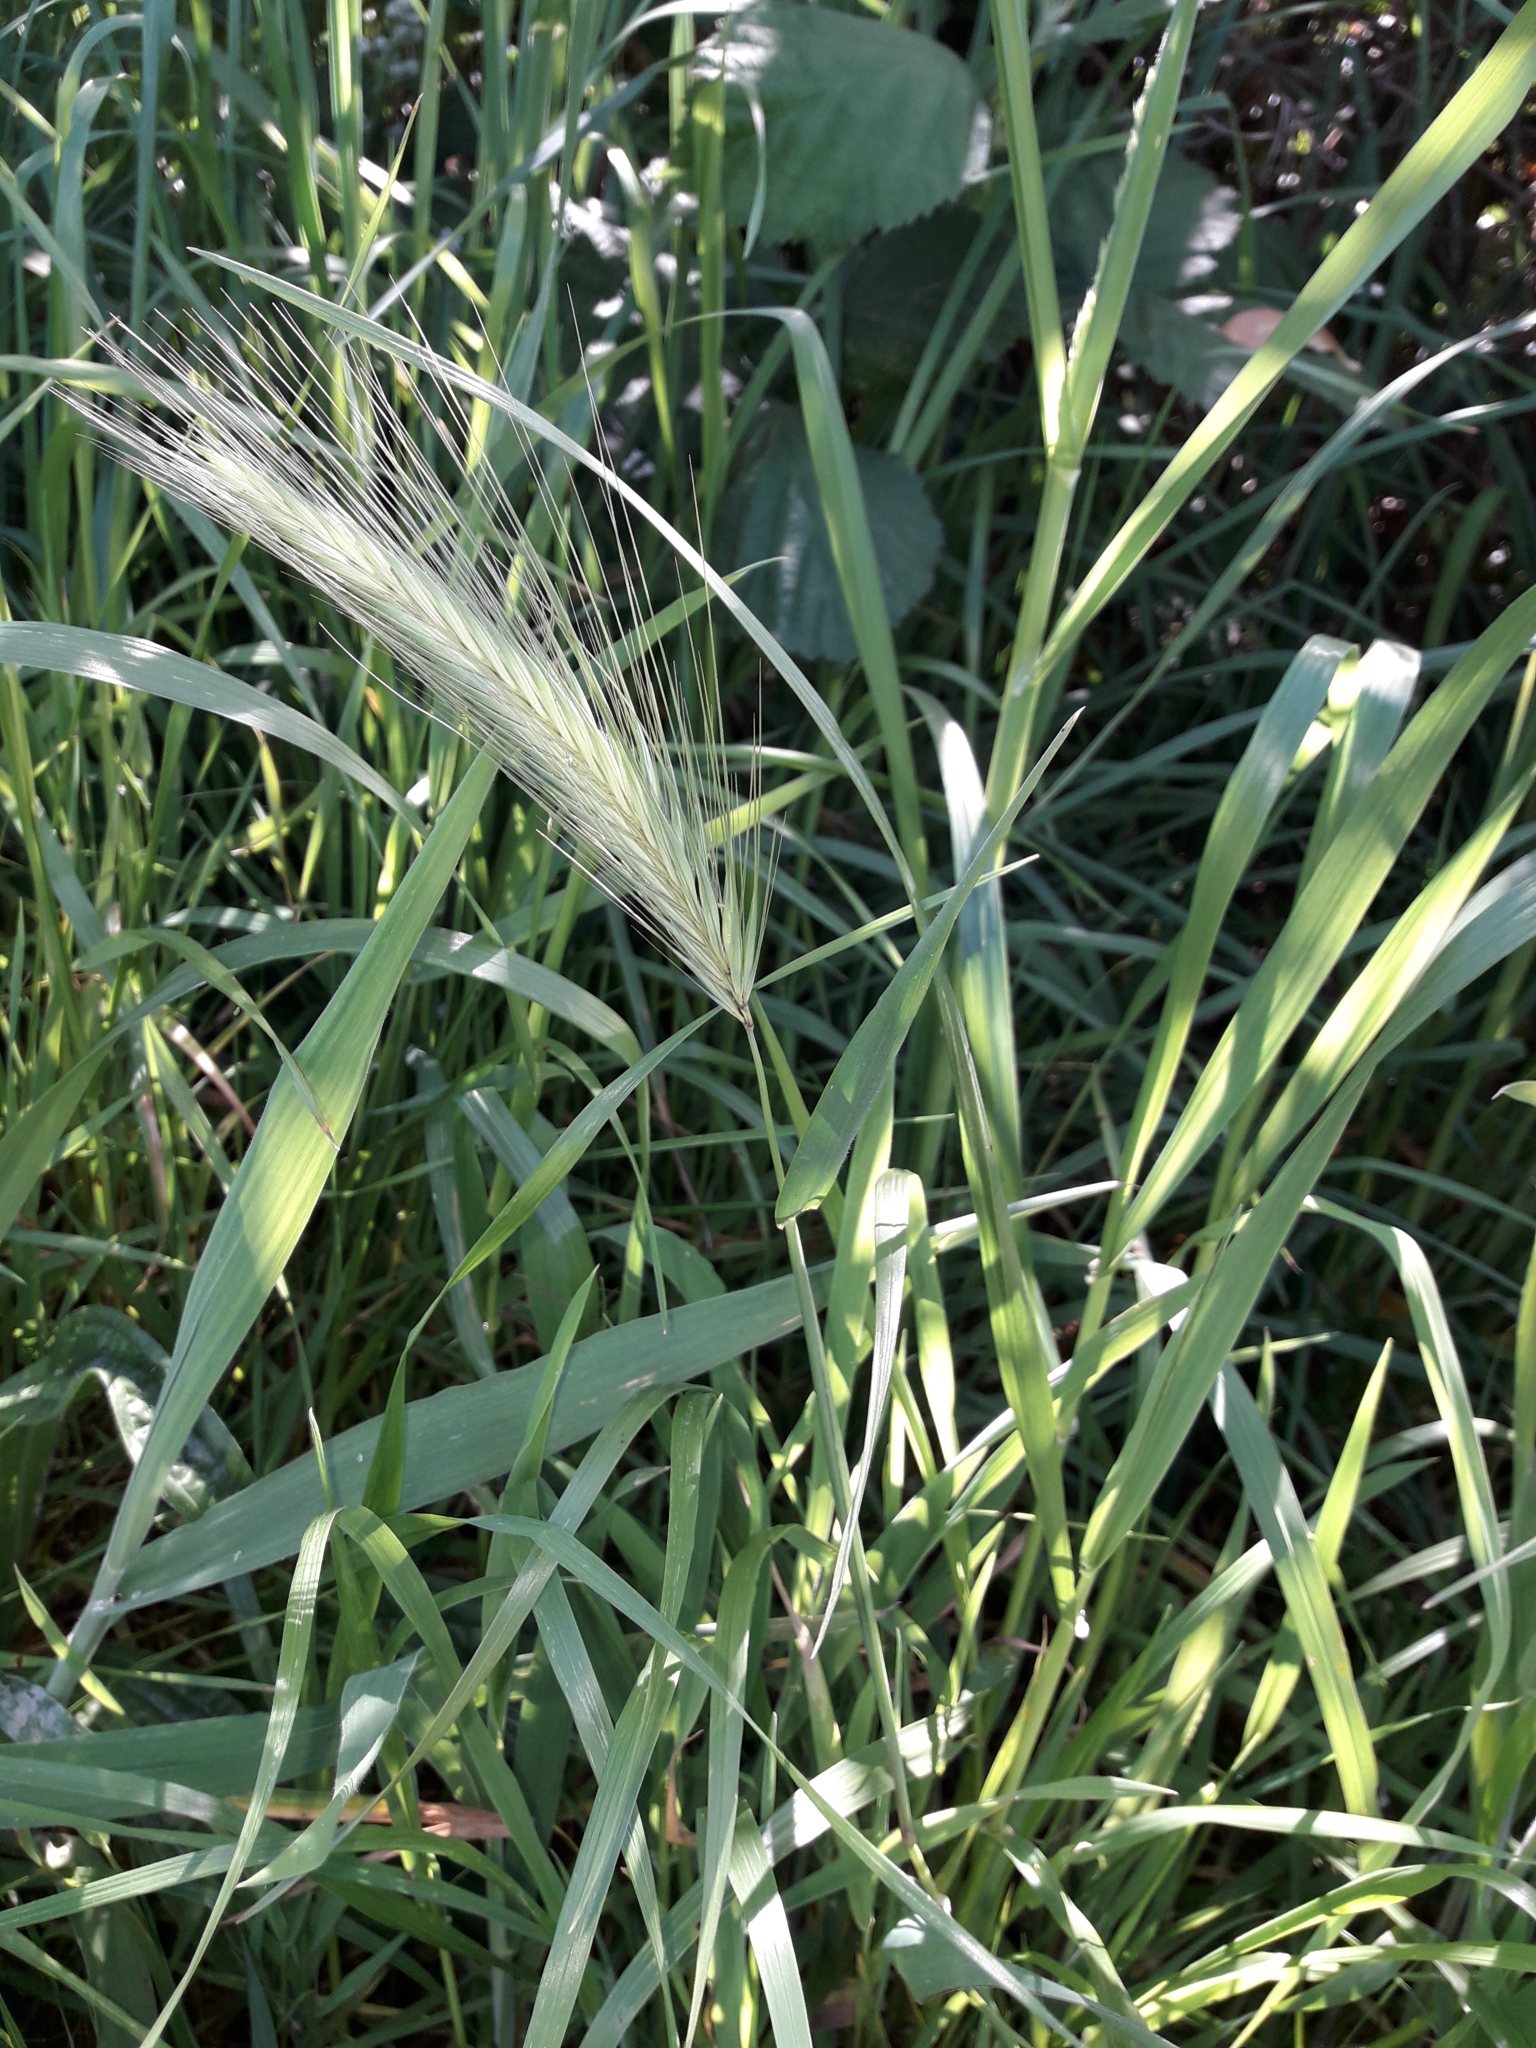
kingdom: Plantae
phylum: Tracheophyta
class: Liliopsida
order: Poales
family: Poaceae
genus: Hordeum
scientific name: Hordeum murinum
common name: Wall barley
